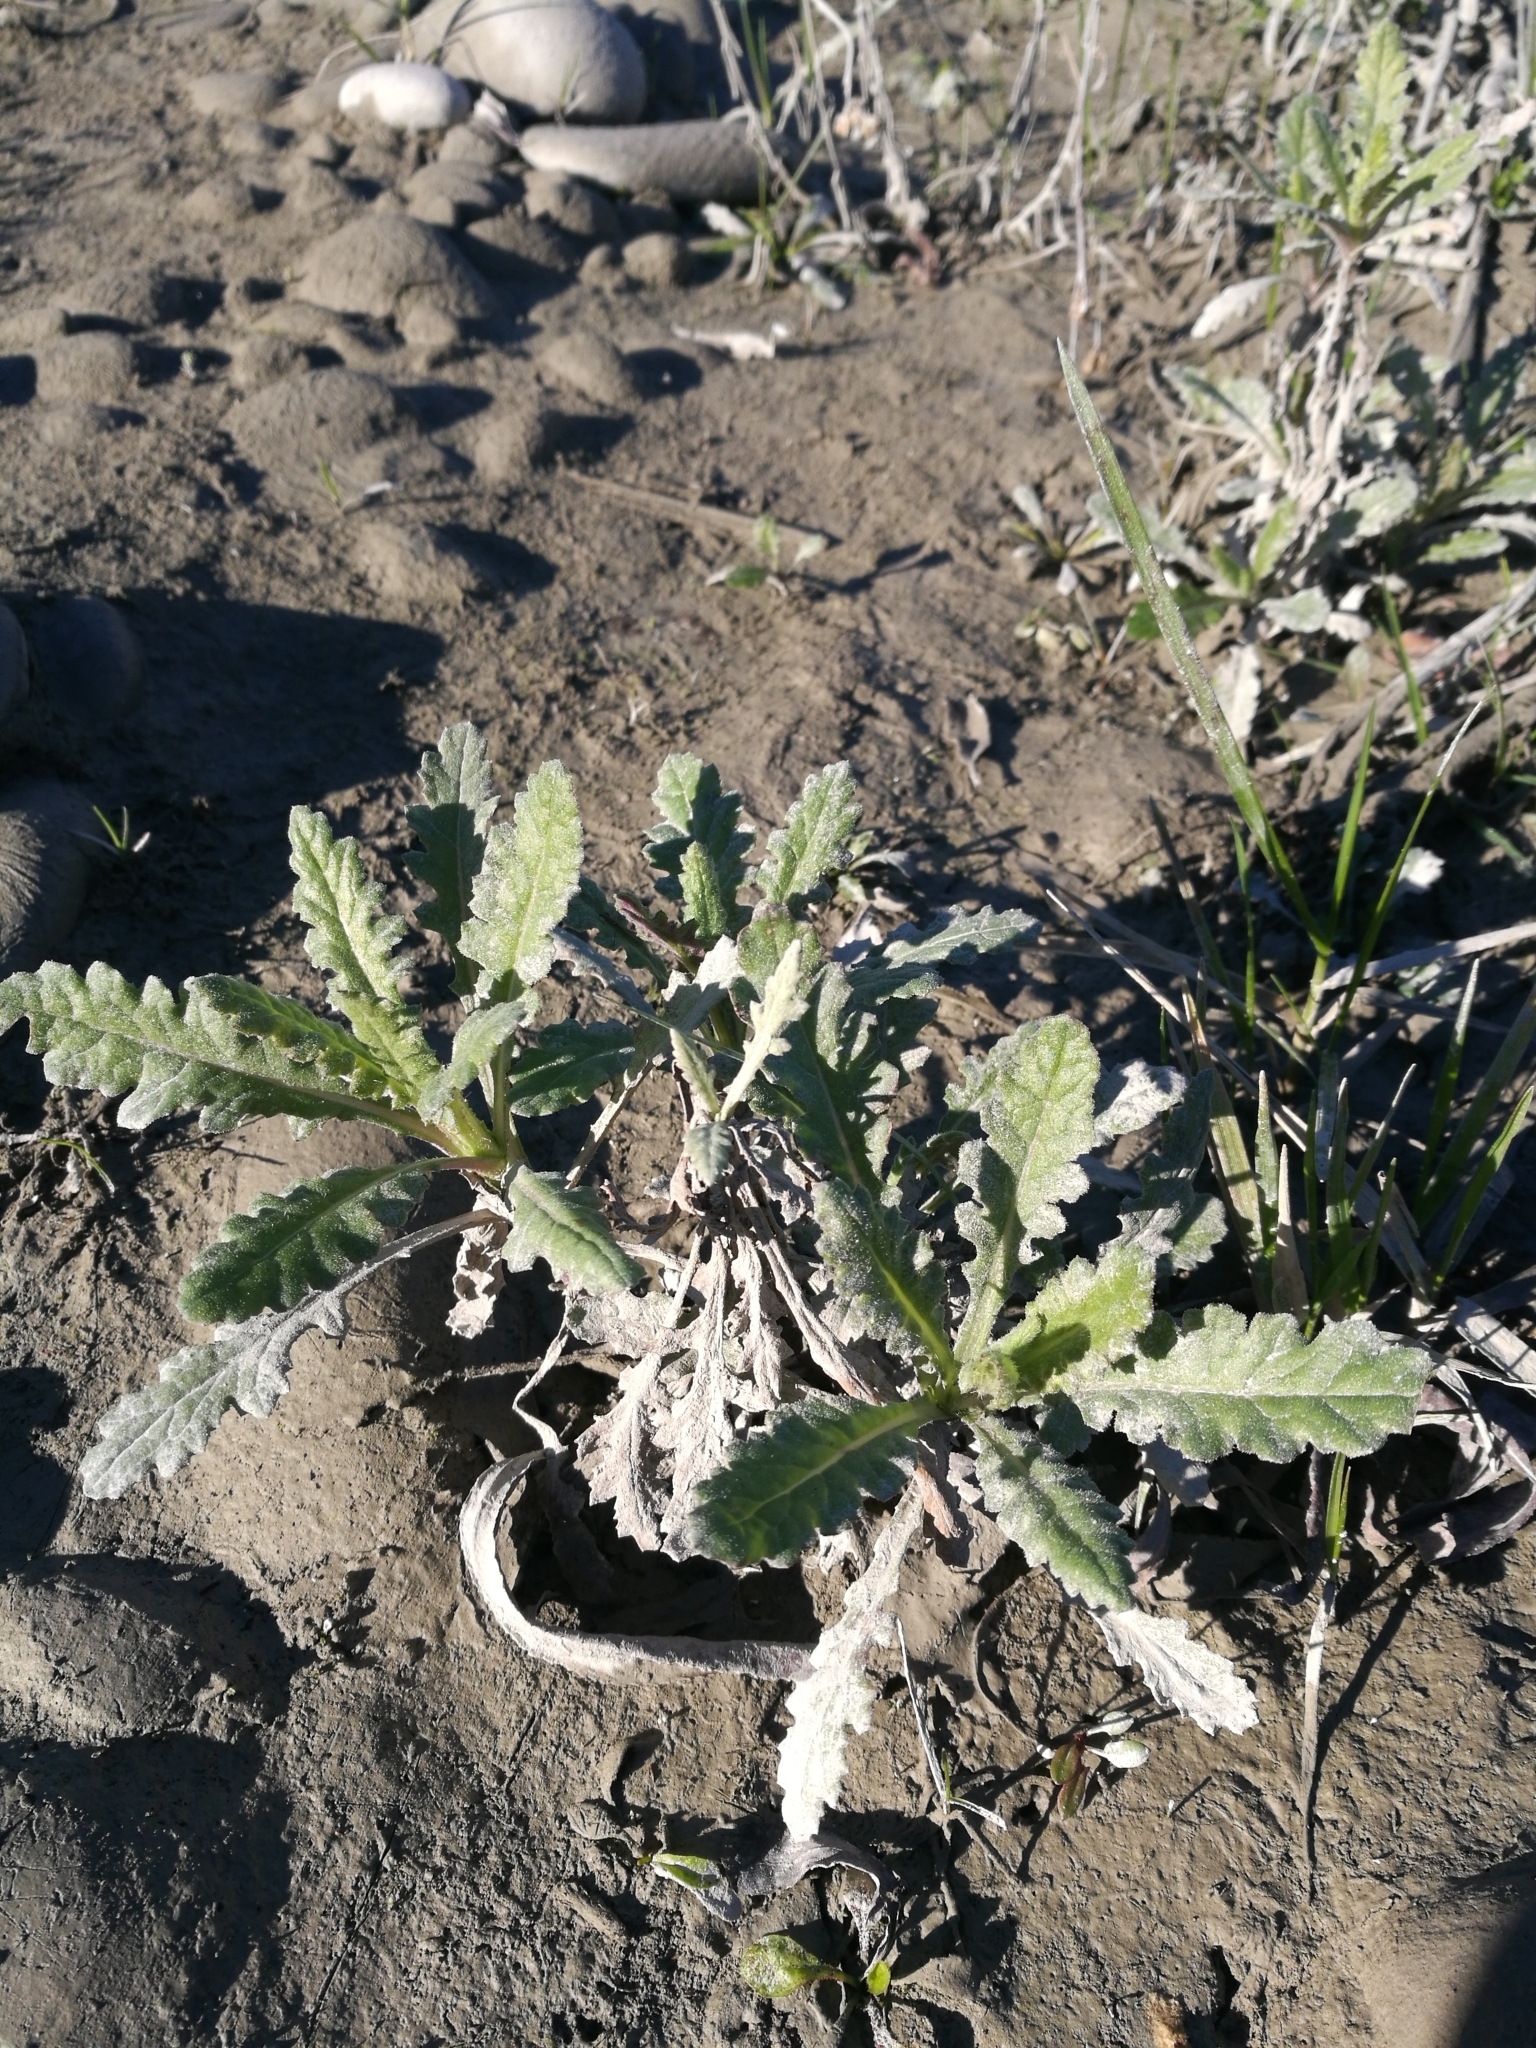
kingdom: Plantae
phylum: Tracheophyta
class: Magnoliopsida
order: Asterales
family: Asteraceae
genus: Senecio
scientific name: Senecio glomeratus
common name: Cutleaf burnweed
